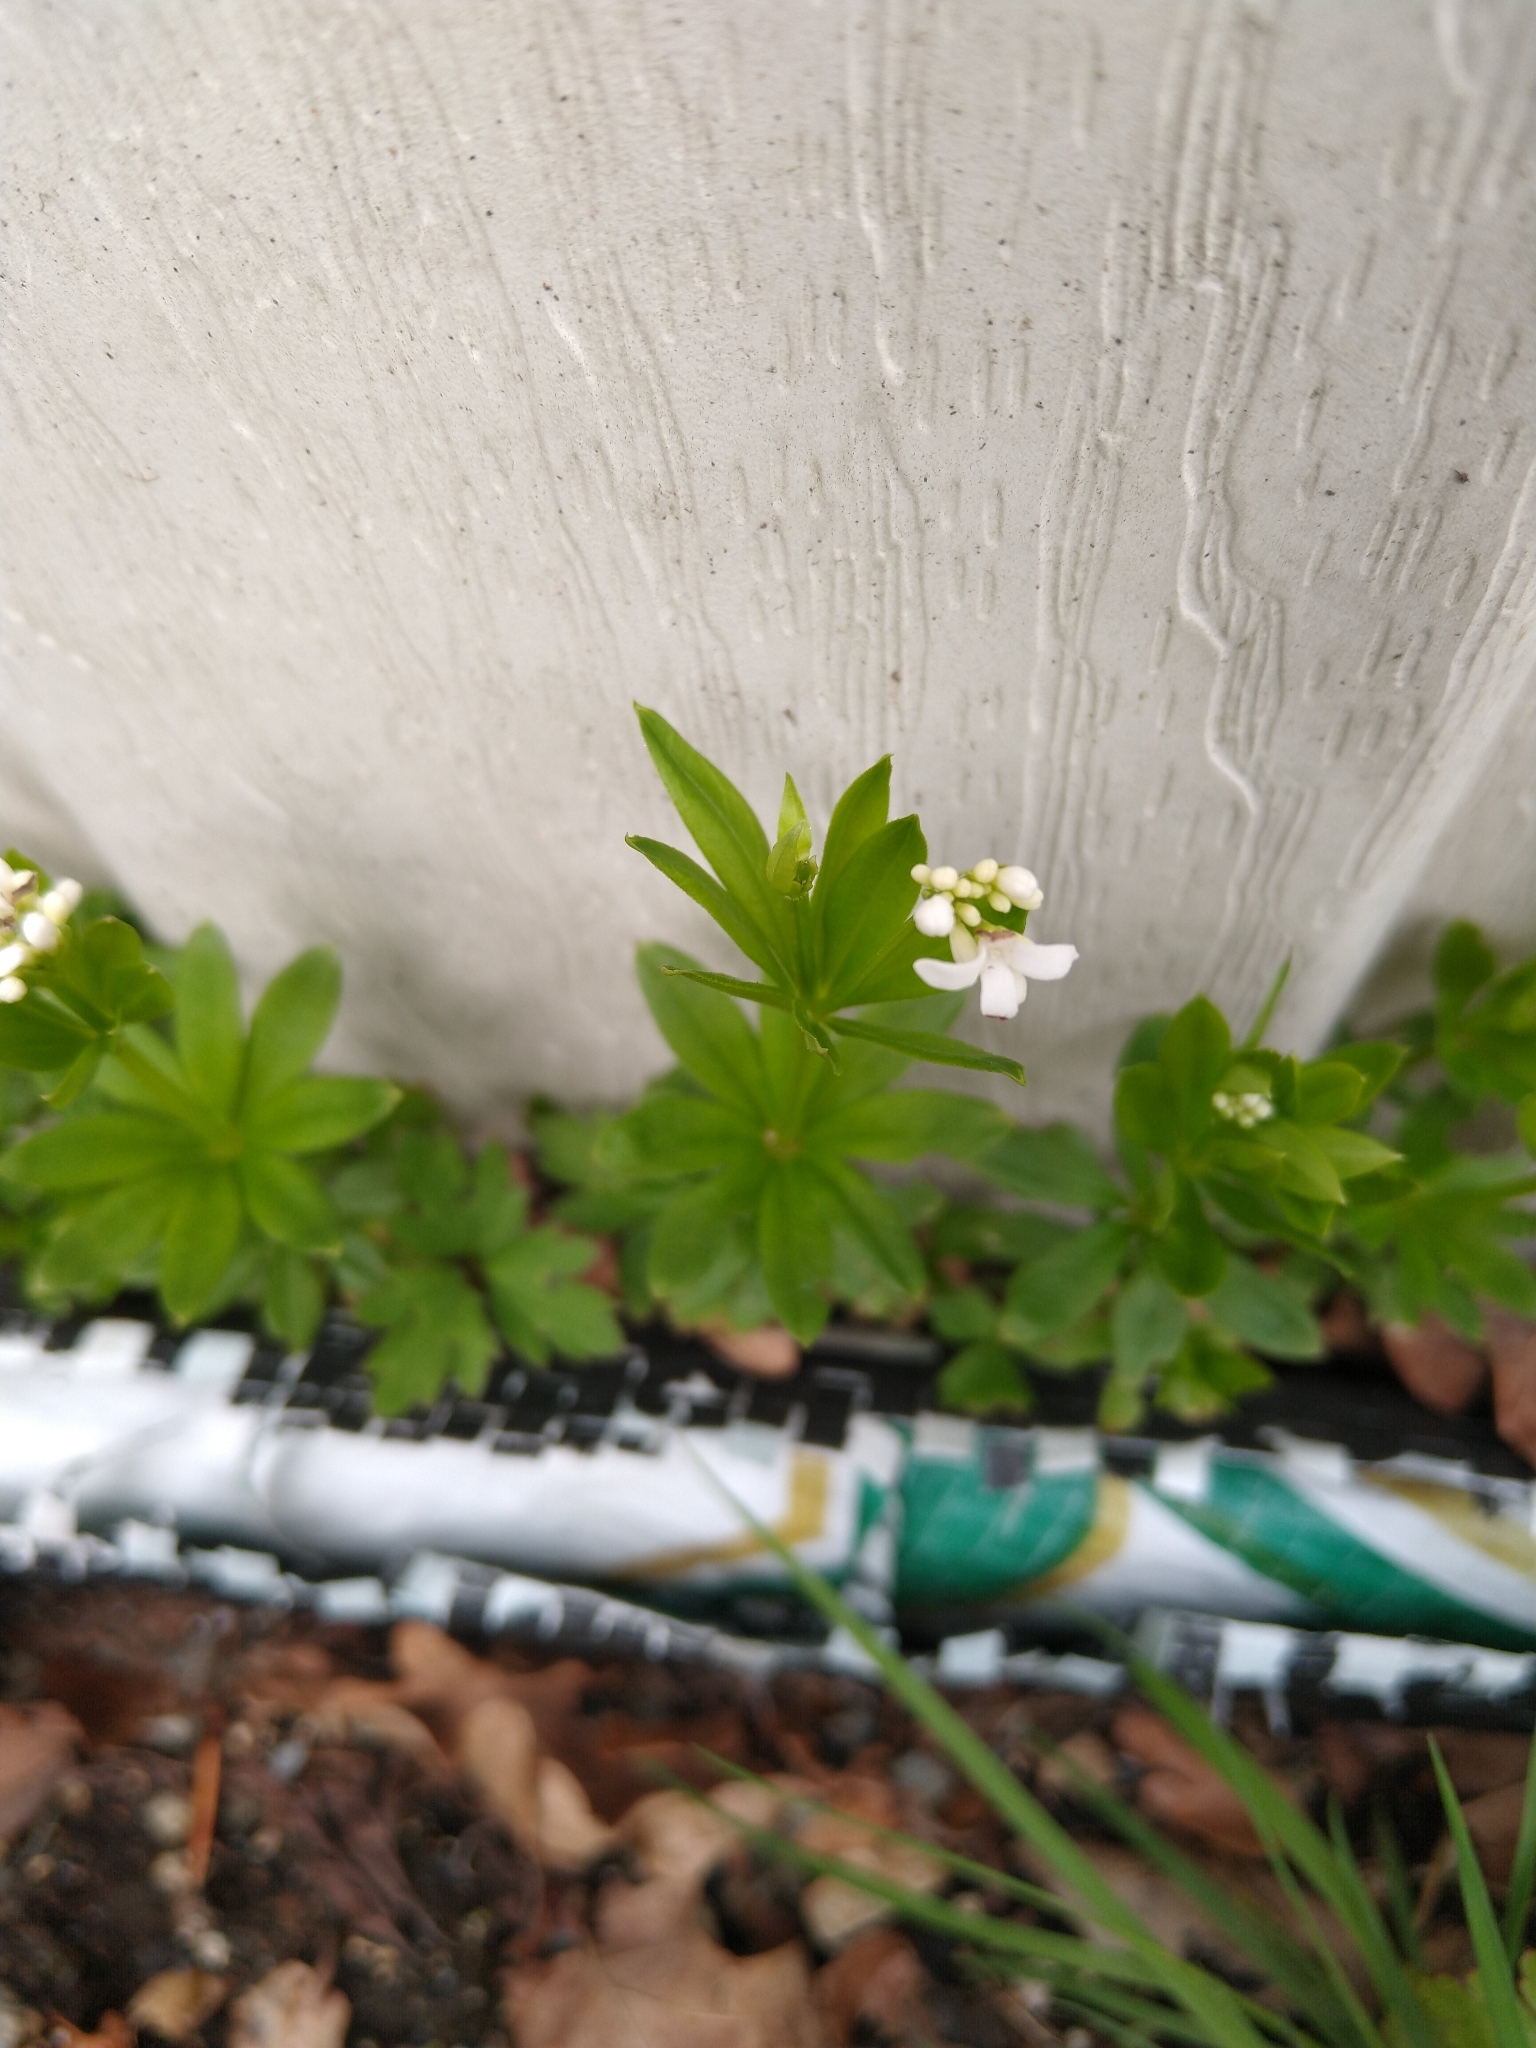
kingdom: Plantae
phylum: Tracheophyta
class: Magnoliopsida
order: Gentianales
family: Rubiaceae
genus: Galium
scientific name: Galium odoratum
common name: Sweet woodruff
